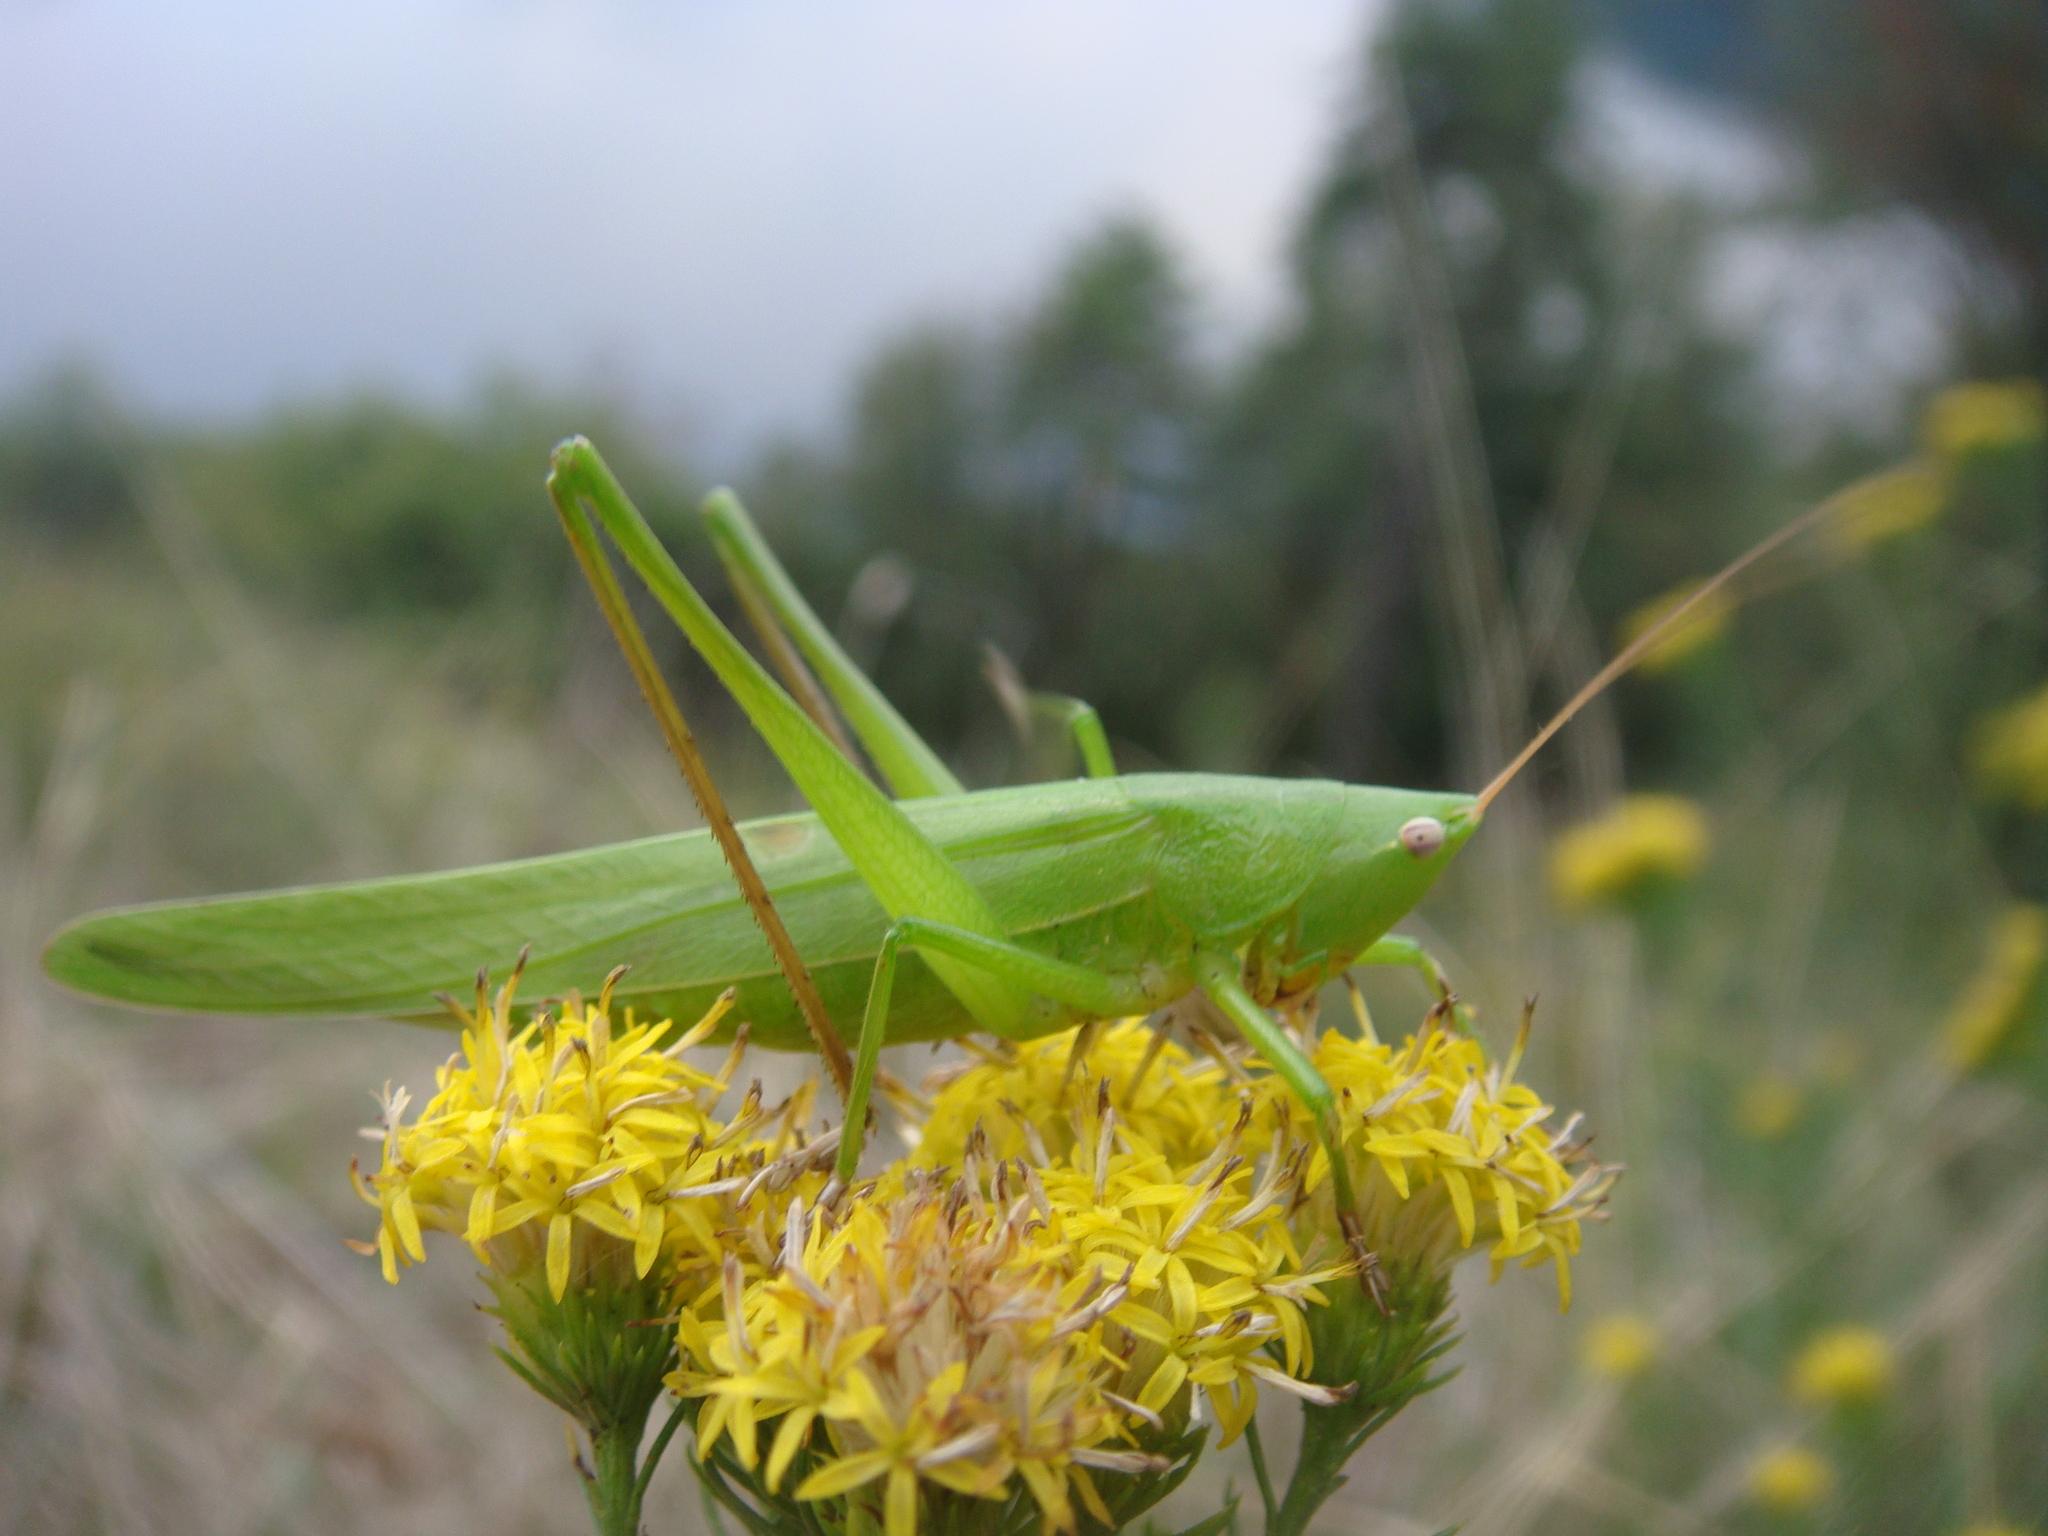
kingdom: Animalia
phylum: Arthropoda
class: Insecta
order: Orthoptera
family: Tettigoniidae
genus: Ruspolia
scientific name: Ruspolia nitidula
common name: Large conehead
